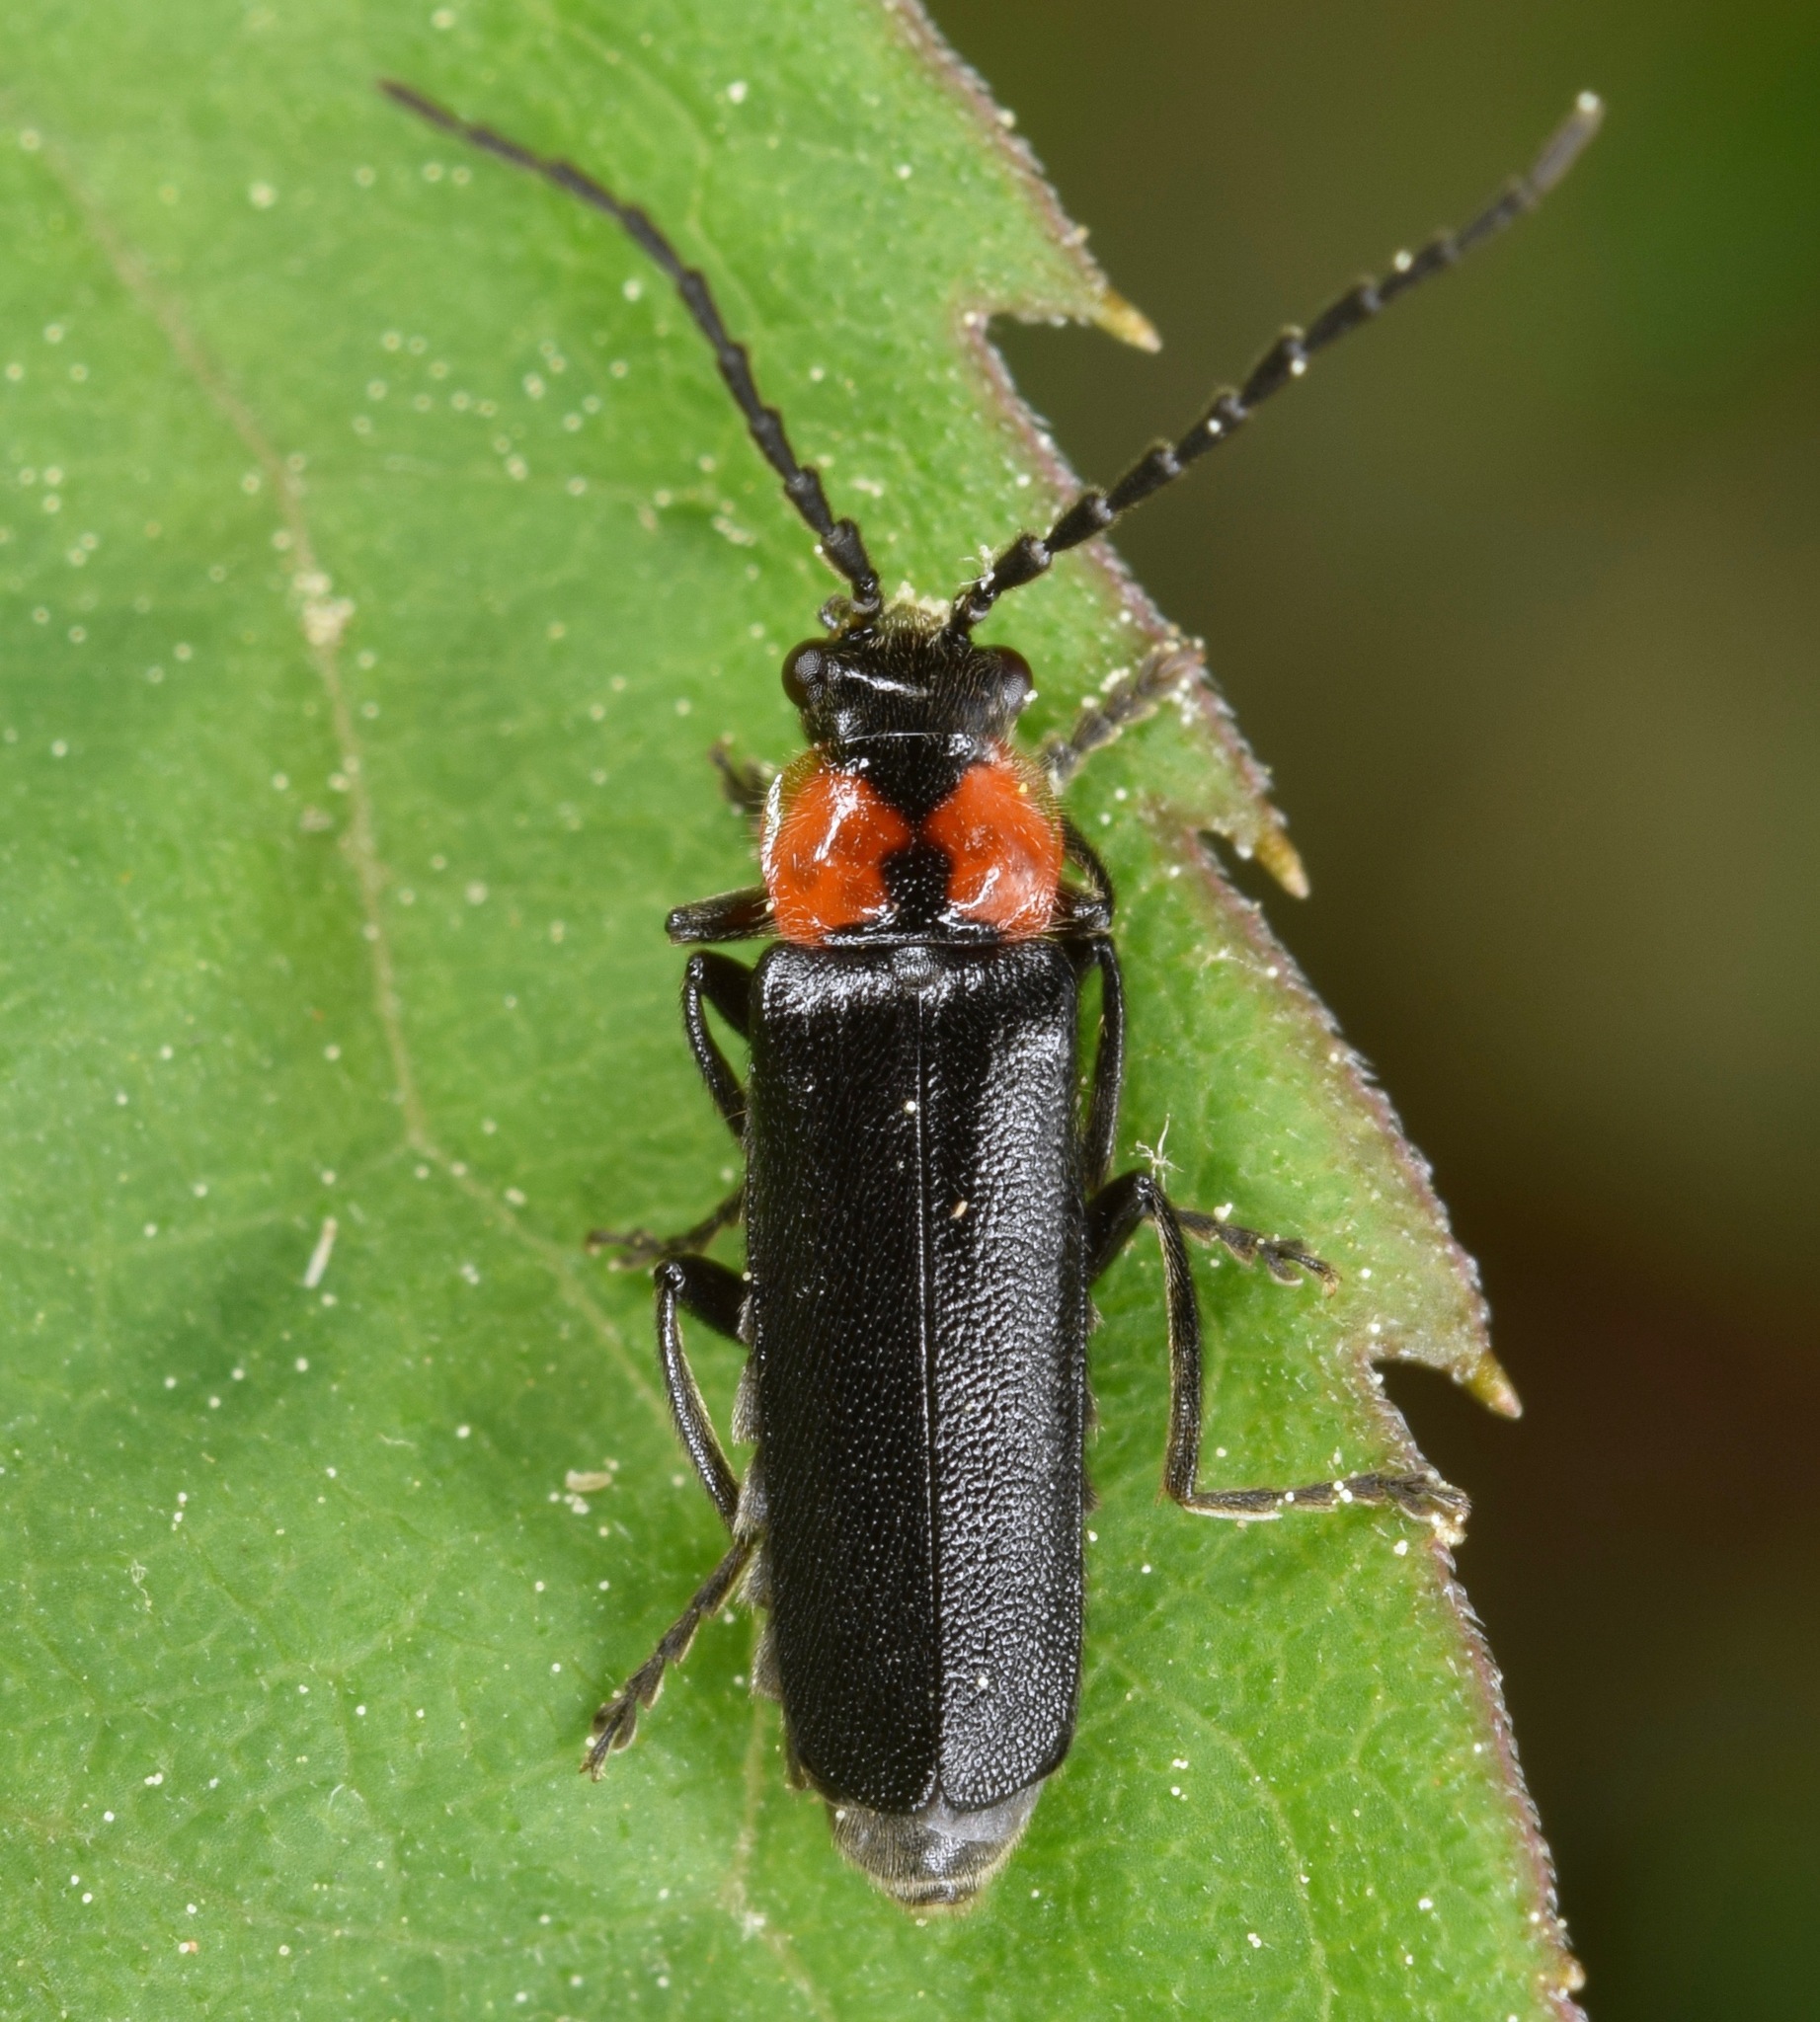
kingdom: Animalia
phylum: Arthropoda
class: Insecta
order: Coleoptera
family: Cantharidae
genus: Cantharis
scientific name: Cantharis tuberculata
